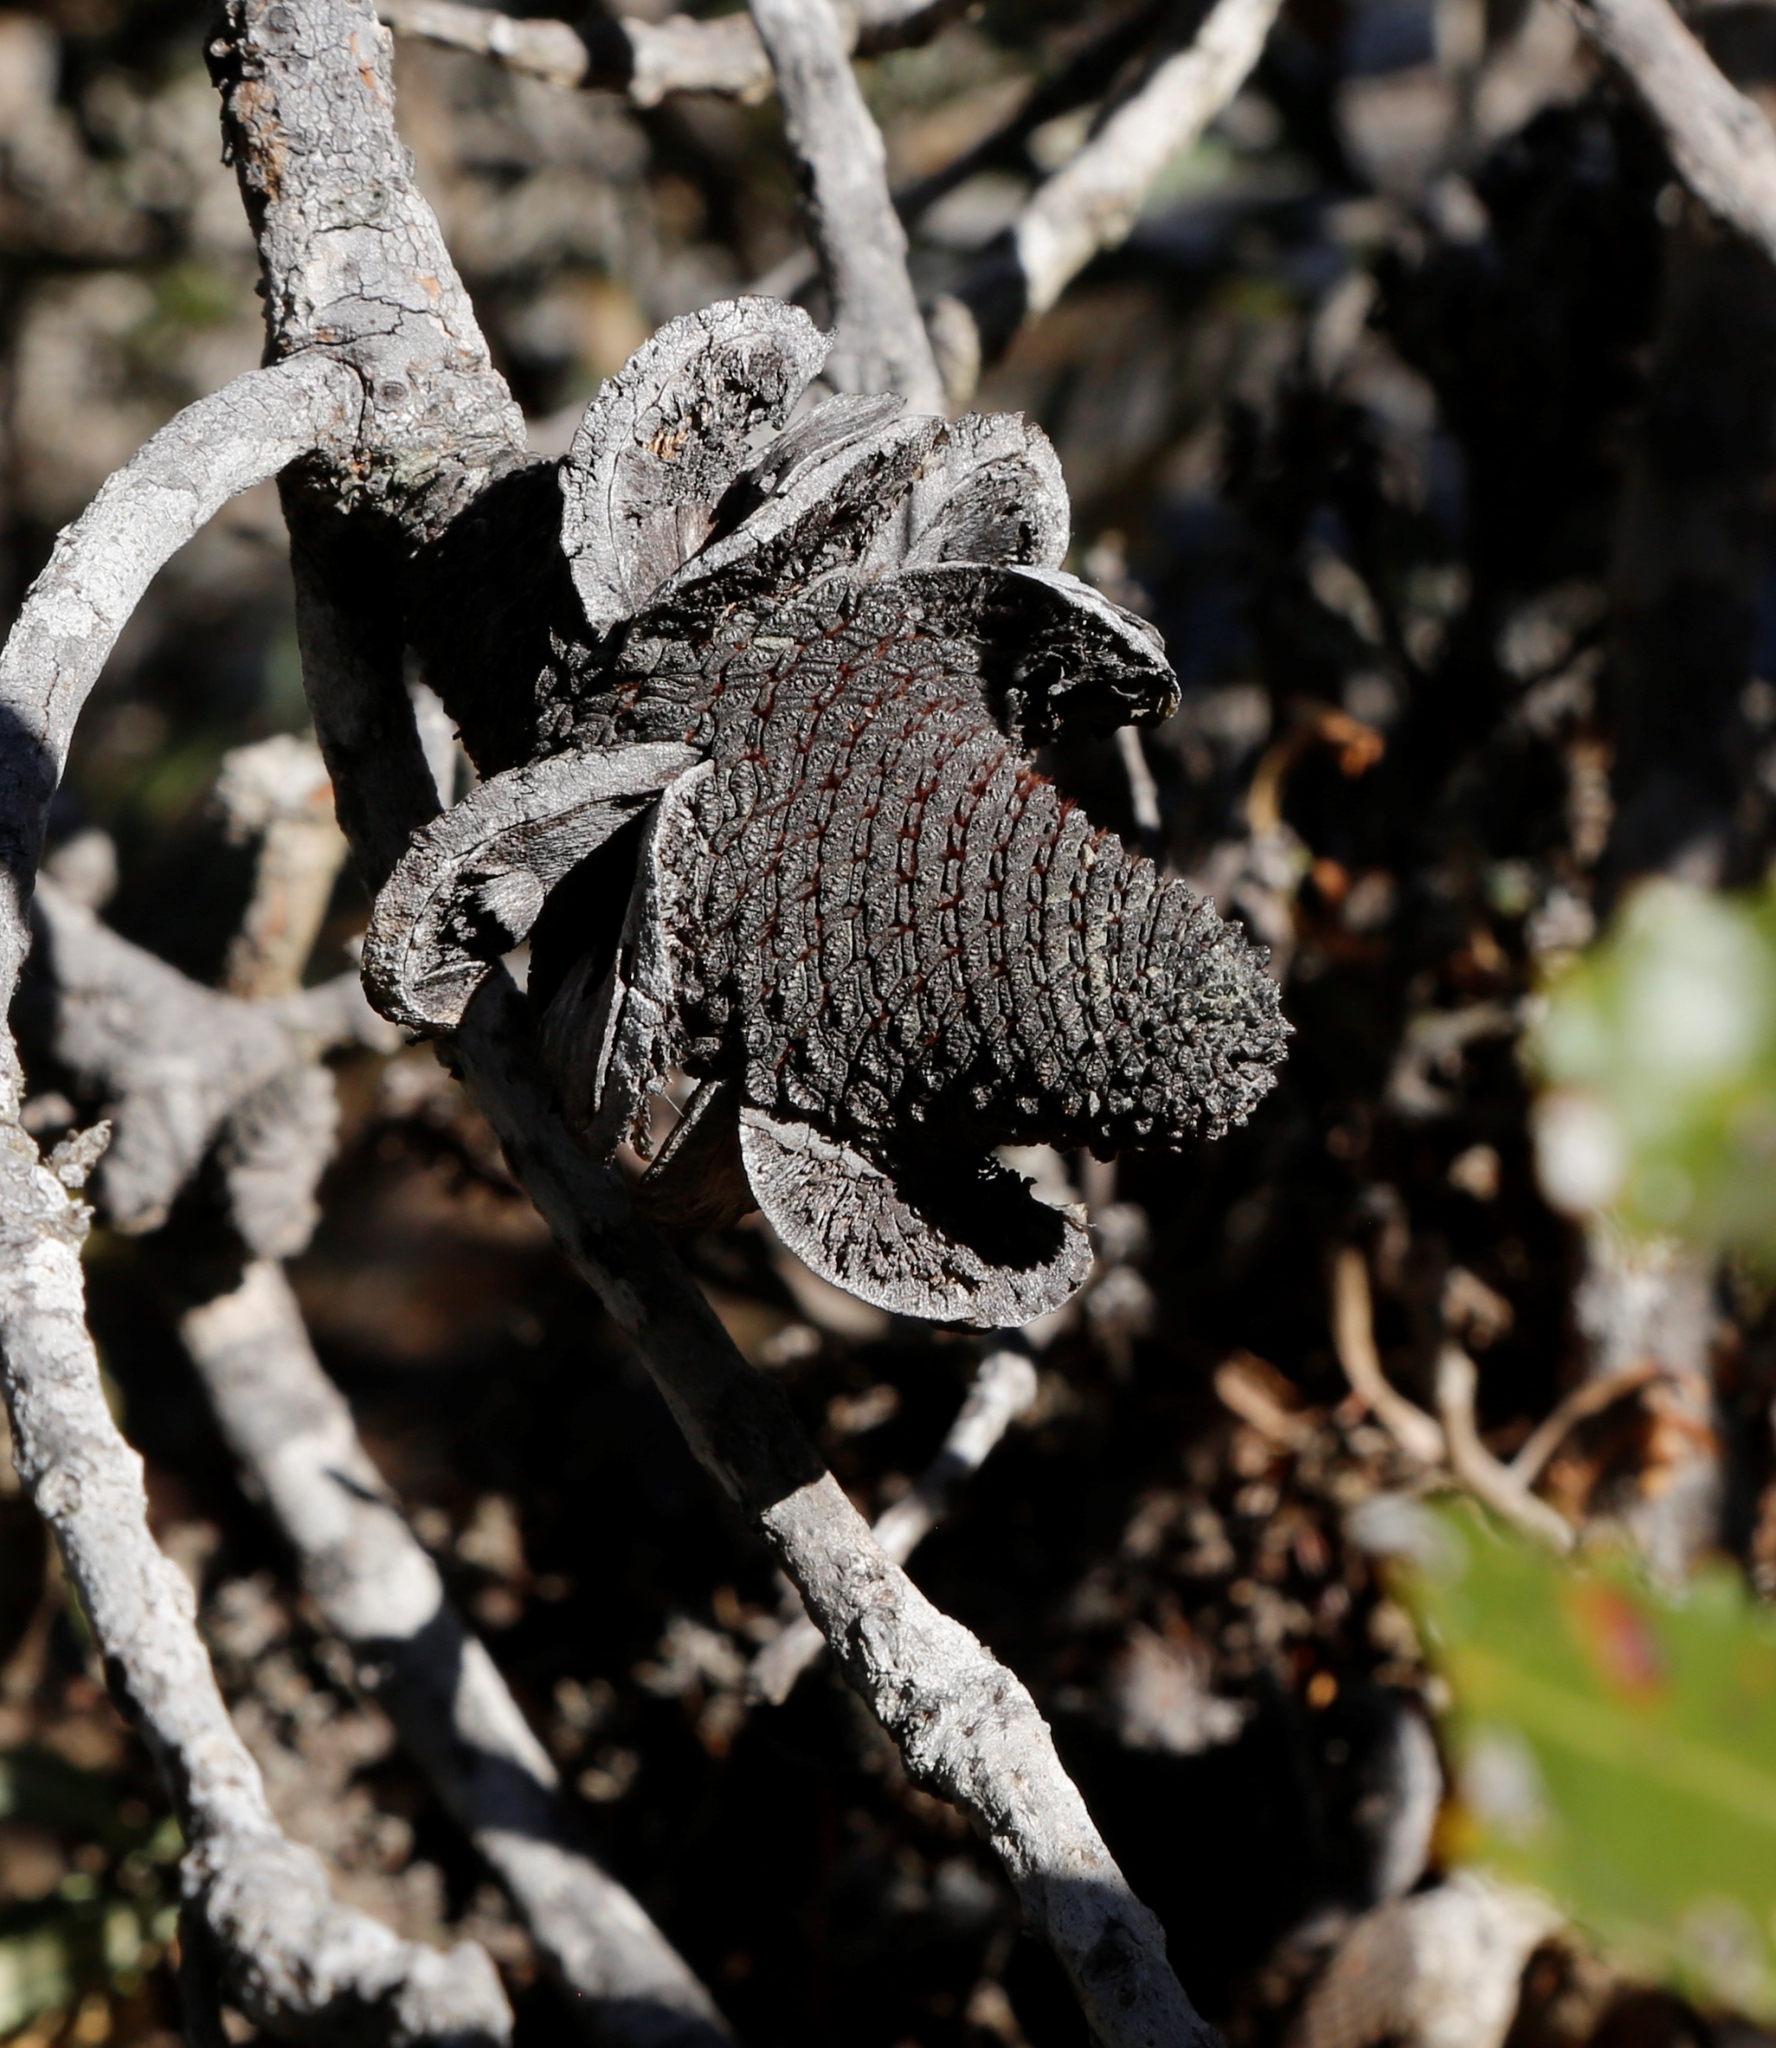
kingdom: Plantae
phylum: Tracheophyta
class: Magnoliopsida
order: Proteales
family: Proteaceae
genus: Banksia
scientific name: Banksia menziesii
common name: Menzie's banksia
